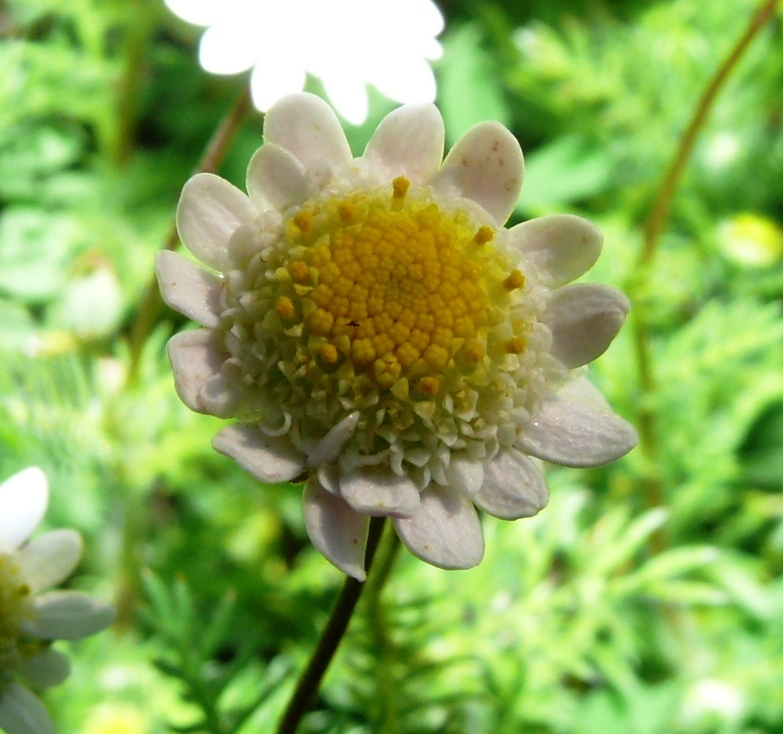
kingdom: Plantae
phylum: Tracheophyta
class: Magnoliopsida
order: Asterales
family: Asteraceae
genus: Cotula
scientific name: Cotula turbinata
